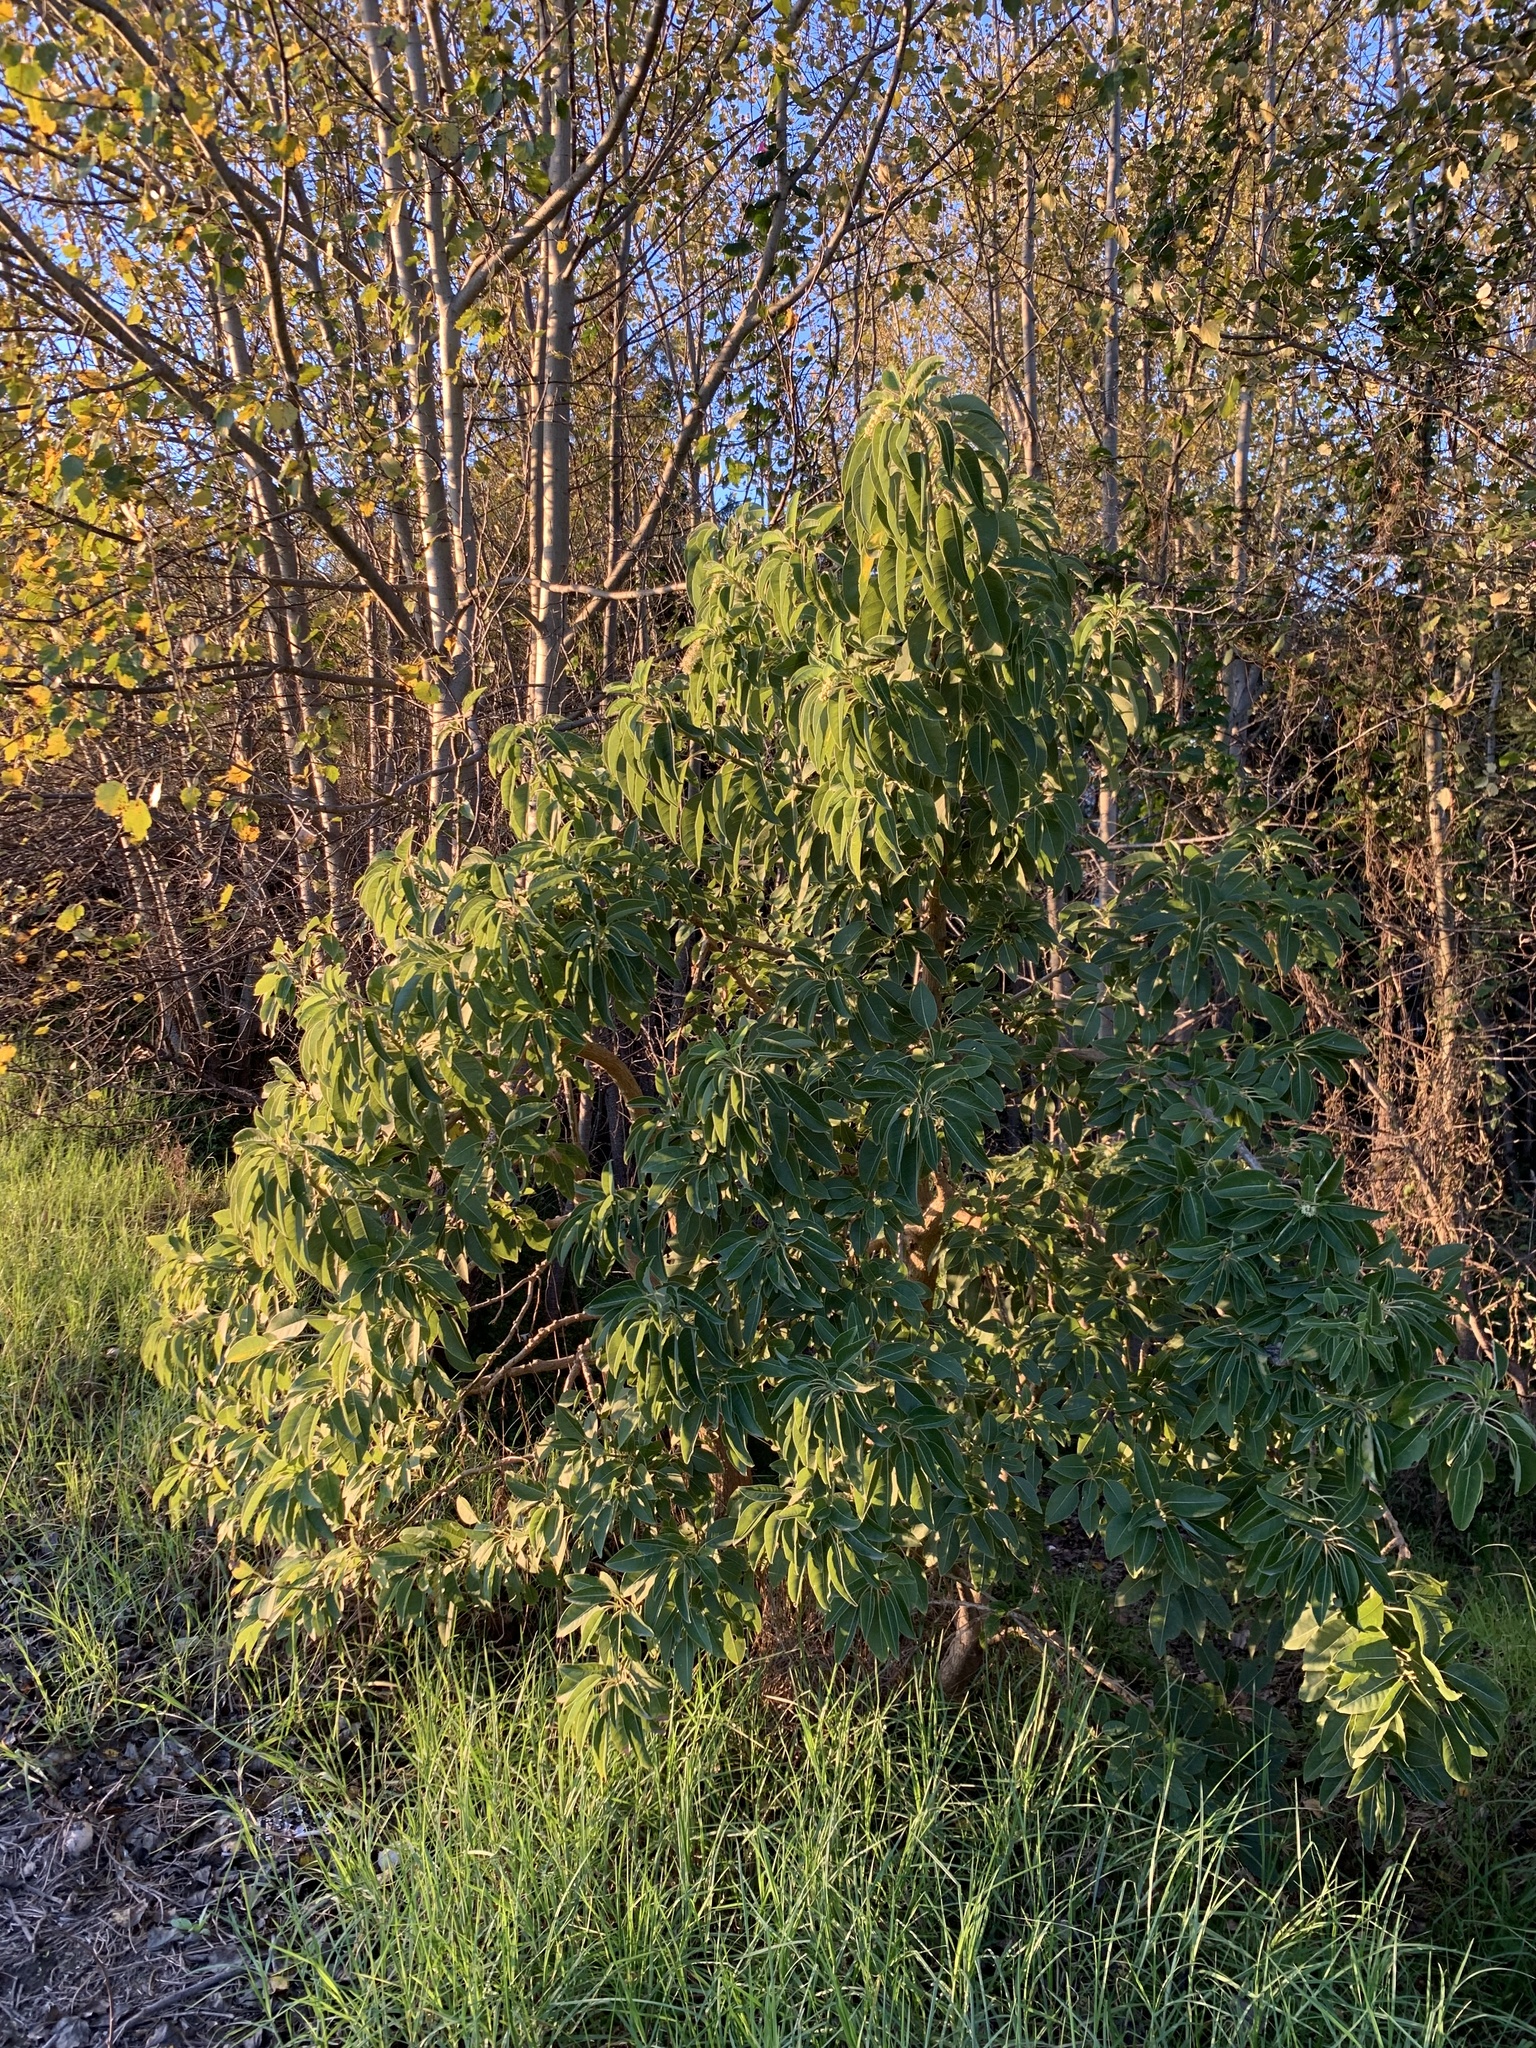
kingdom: Plantae
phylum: Tracheophyta
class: Magnoliopsida
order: Caryophyllales
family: Phytolaccaceae
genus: Phytolacca
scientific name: Phytolacca dioica
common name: Pokeweed
